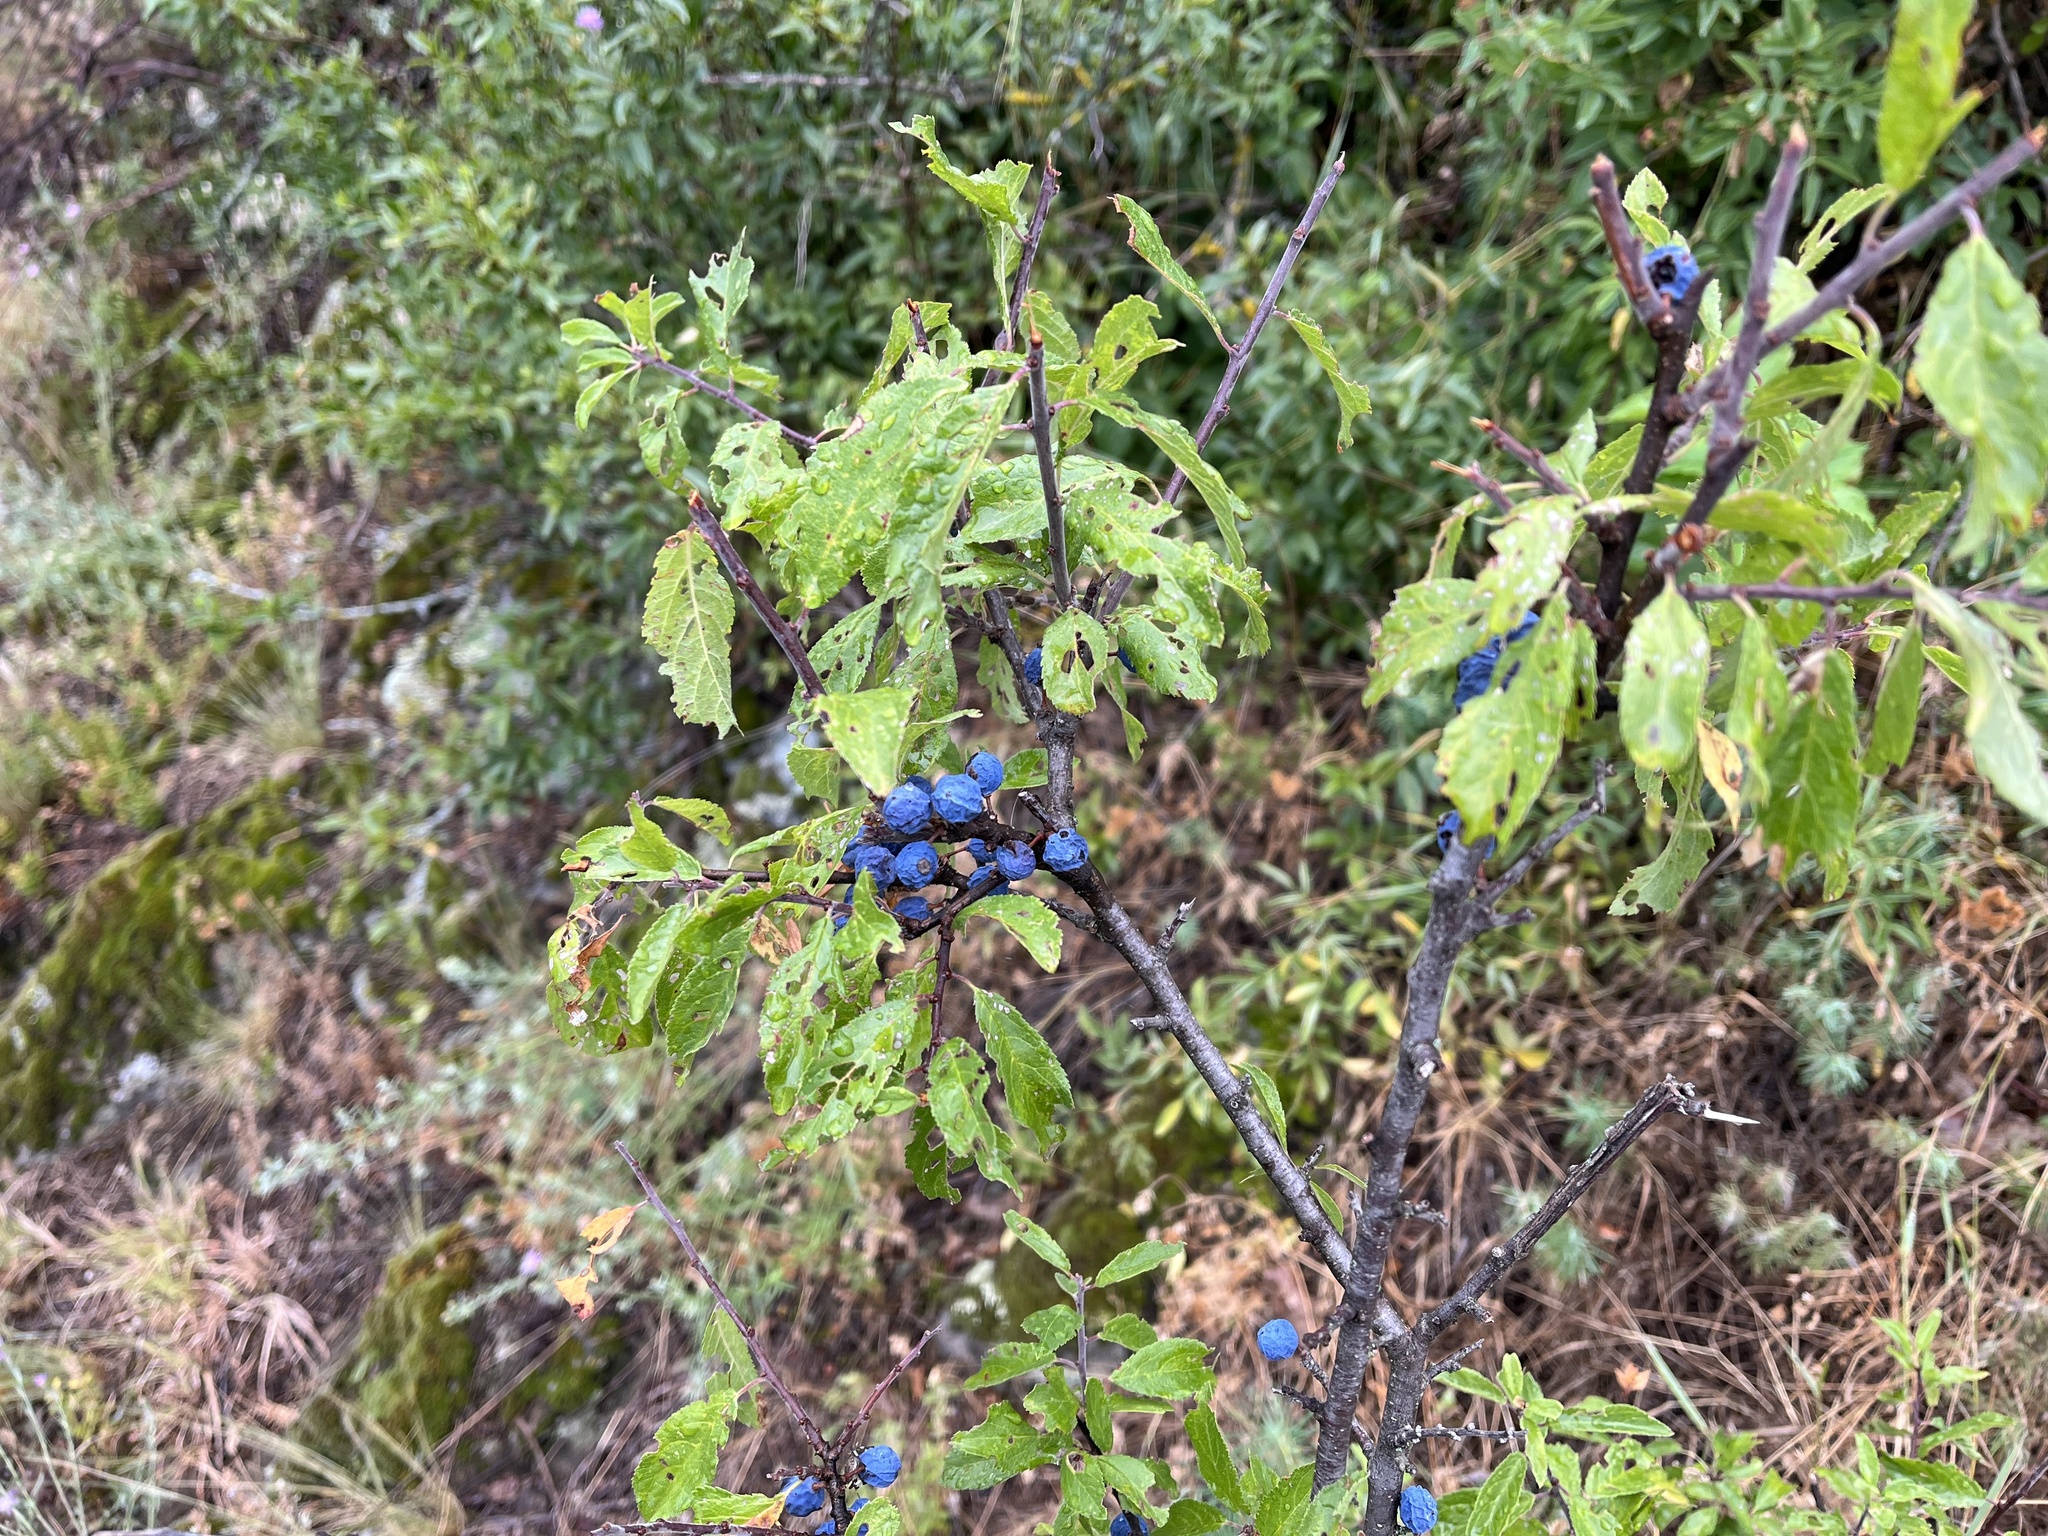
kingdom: Plantae
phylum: Tracheophyta
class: Magnoliopsida
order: Rosales
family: Rosaceae
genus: Prunus
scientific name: Prunus spinosa
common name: Blackthorn
